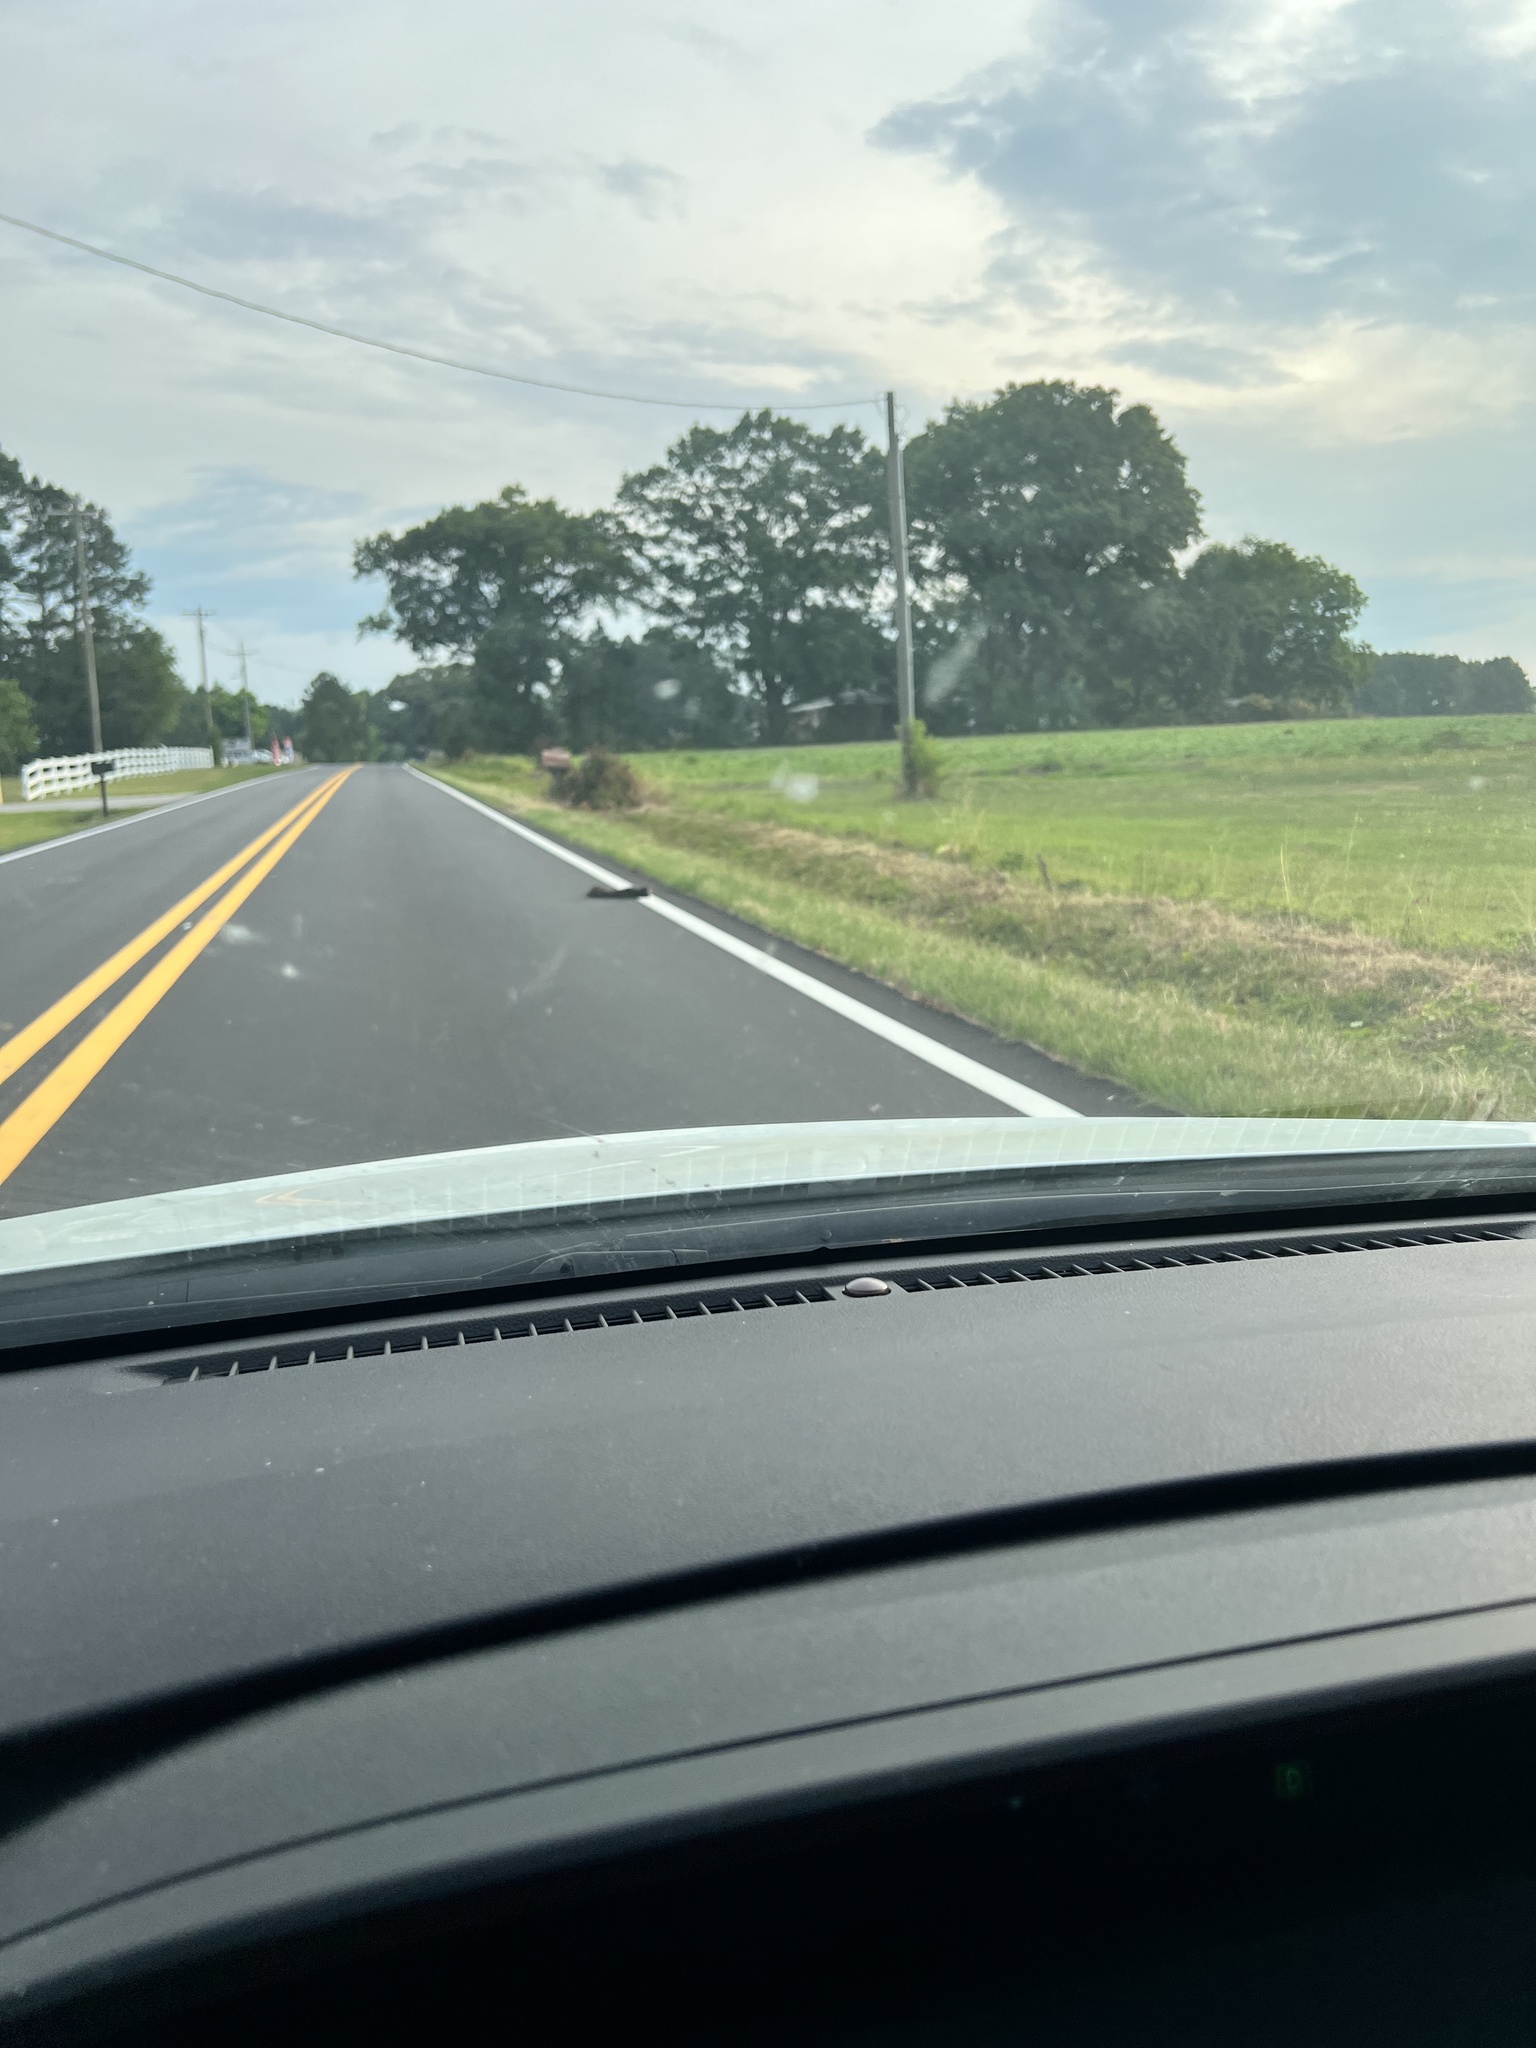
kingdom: Animalia
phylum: Chordata
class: Mammalia
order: Carnivora
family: Felidae
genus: Felis
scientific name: Felis catus
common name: Domestic cat
